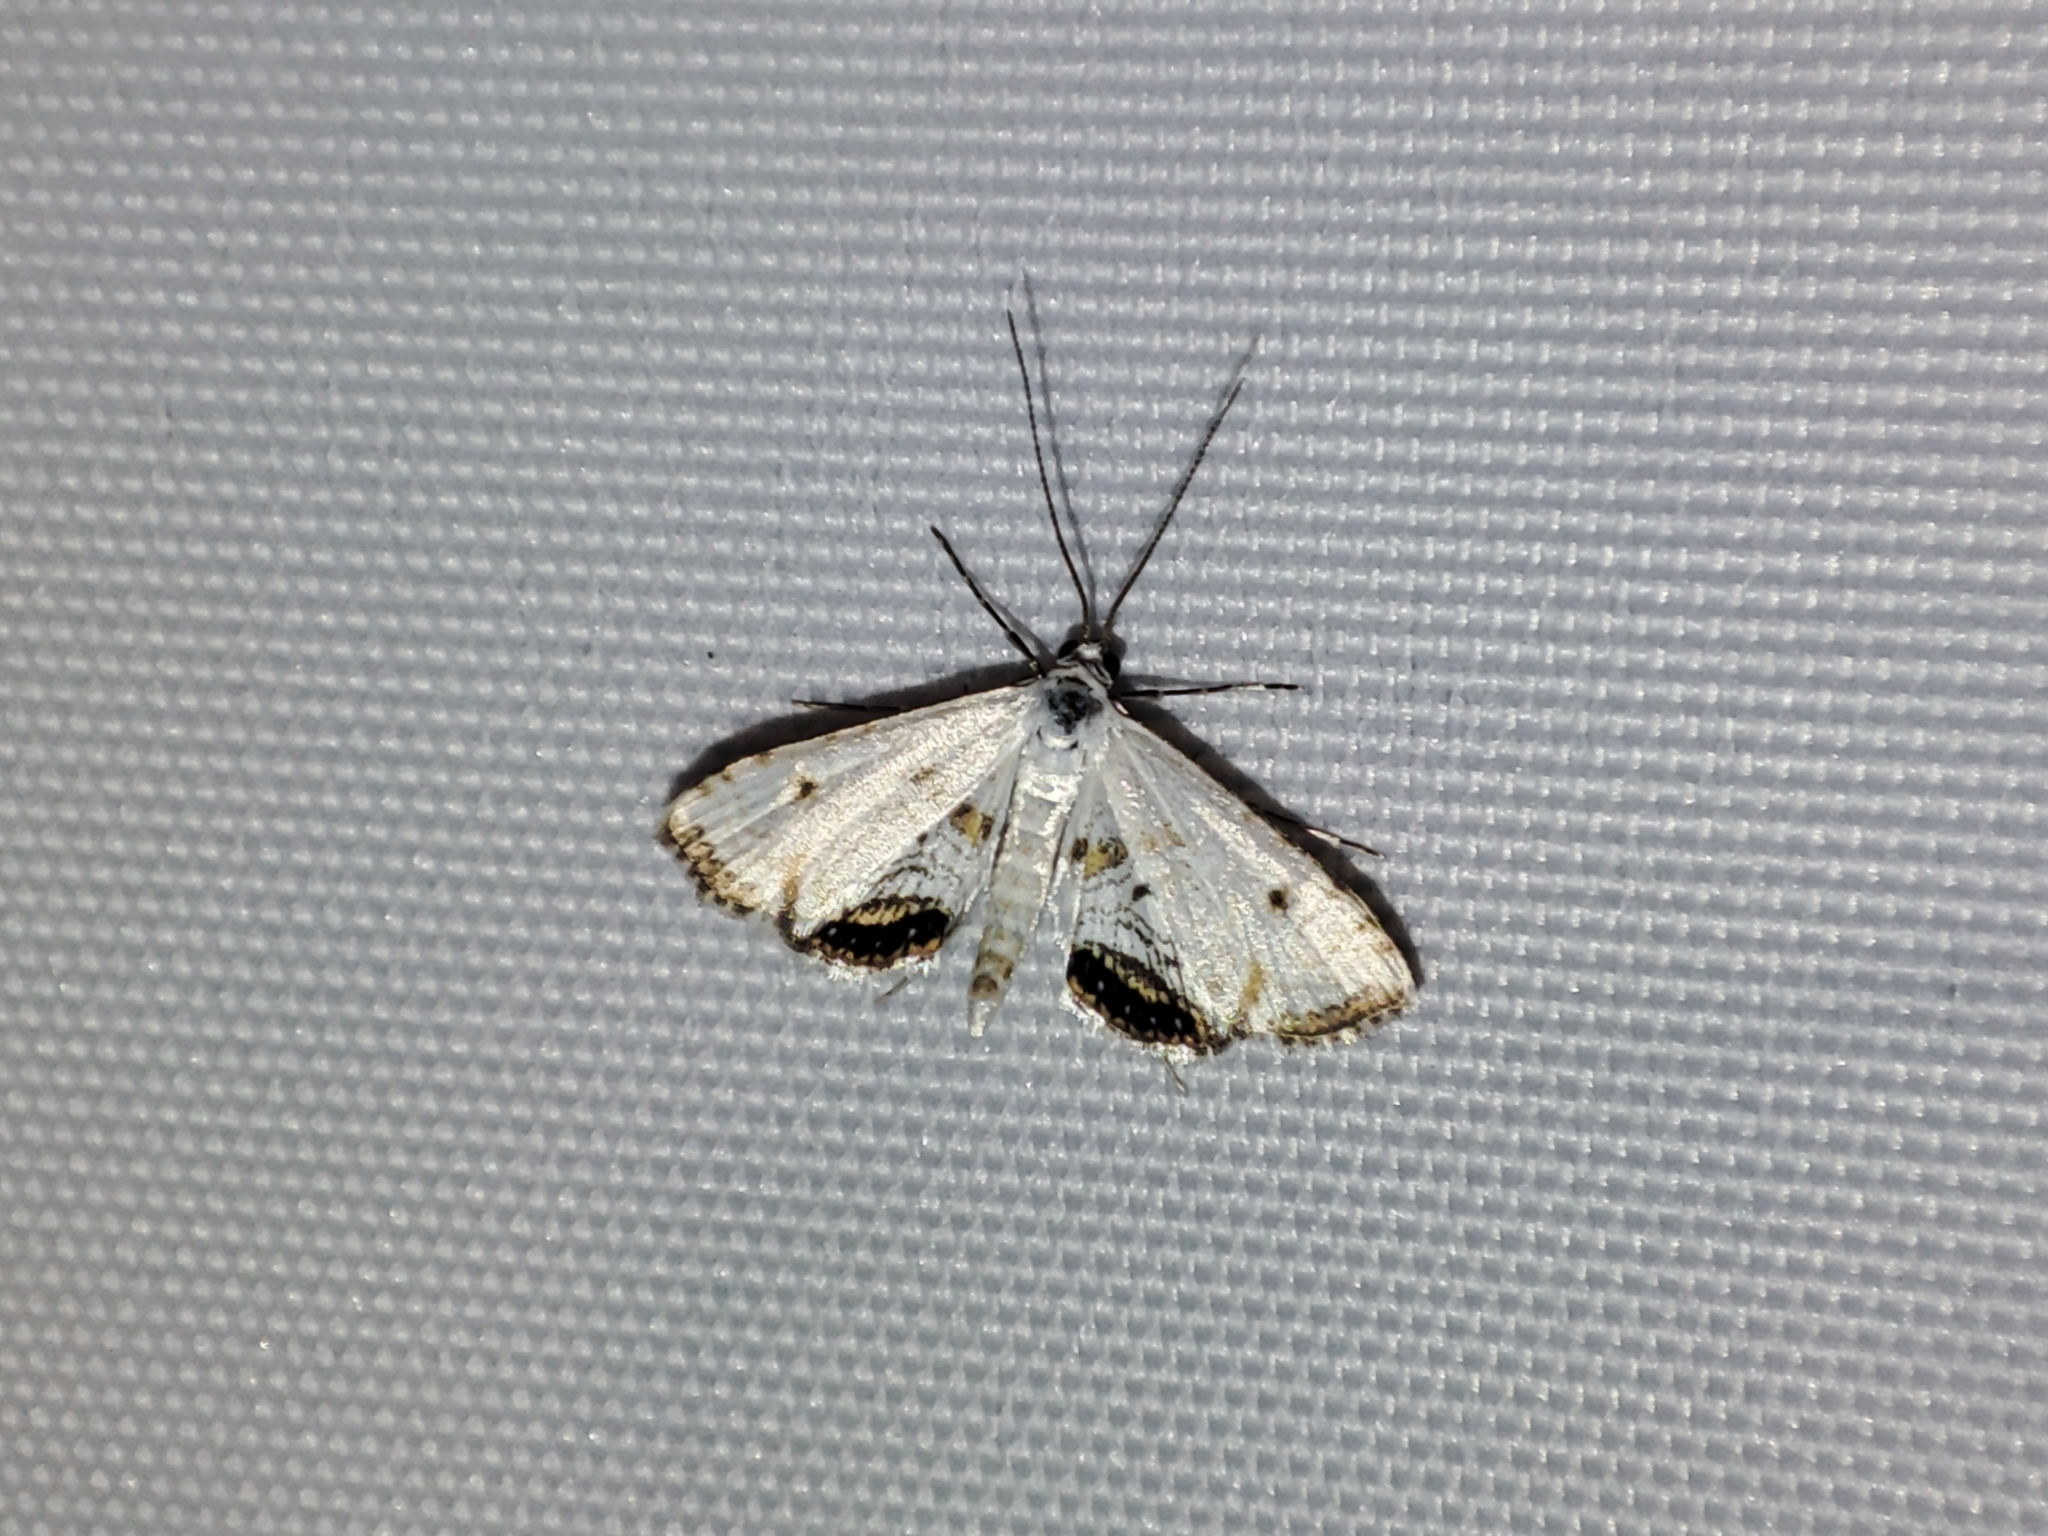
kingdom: Animalia
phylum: Arthropoda
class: Insecta
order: Lepidoptera
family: Crambidae
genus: Cataclysta
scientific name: Cataclysta lemnata
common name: Small china-mark
